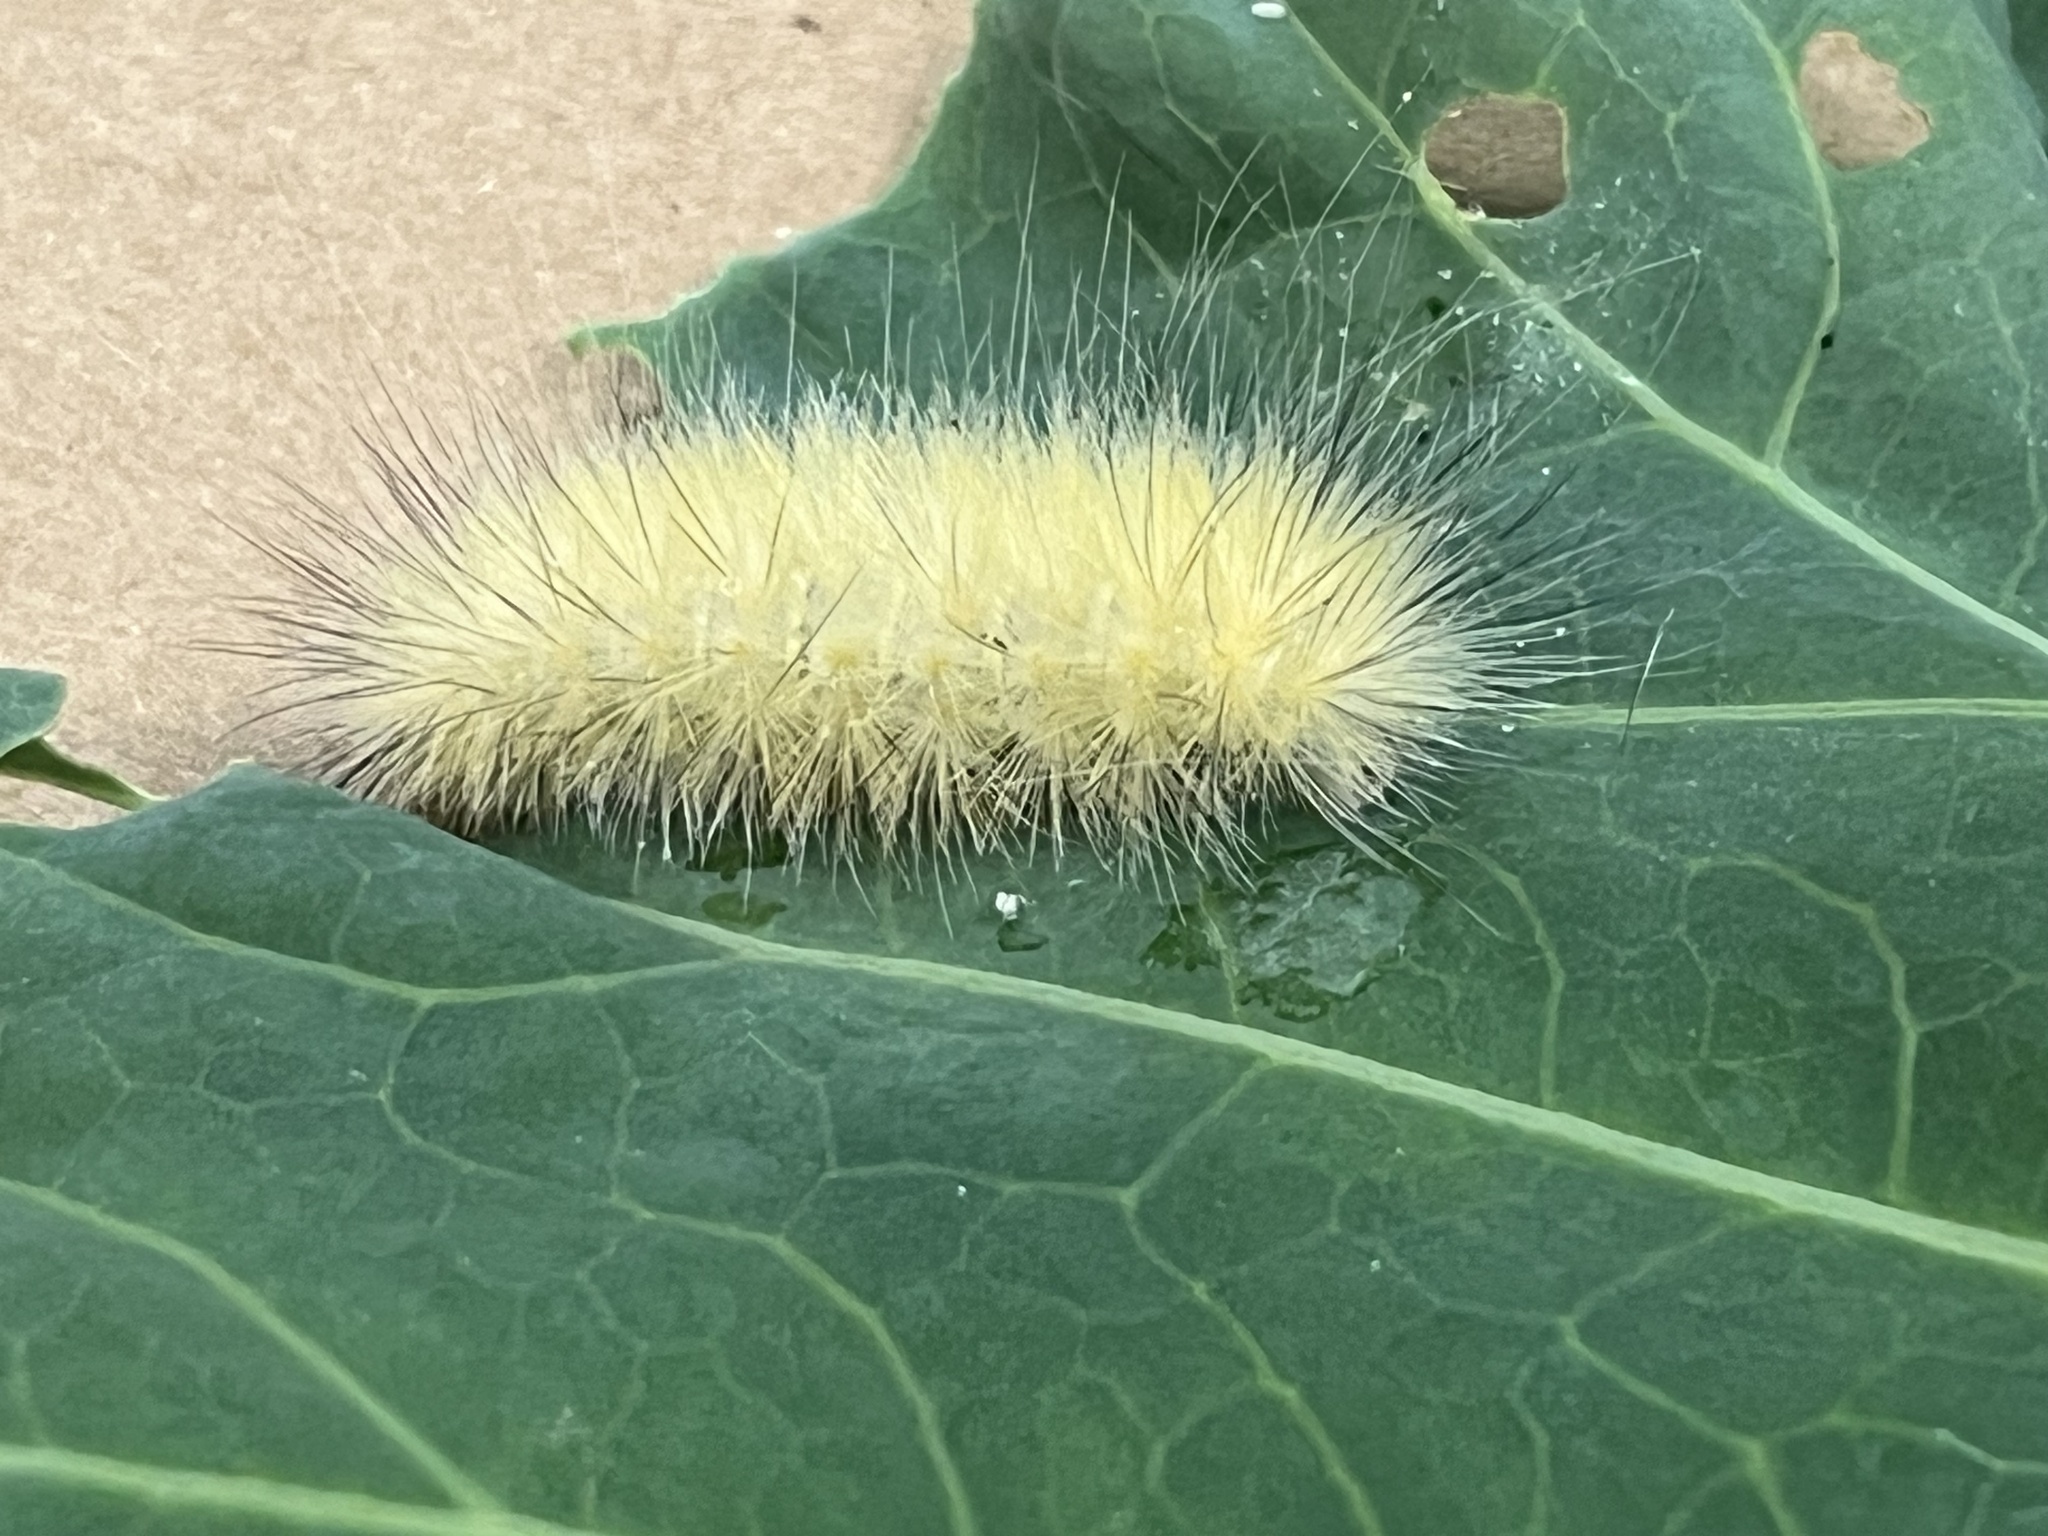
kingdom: Animalia
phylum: Arthropoda
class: Insecta
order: Lepidoptera
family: Erebidae
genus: Spilosoma
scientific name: Spilosoma virginica
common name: Virginia tiger moth
